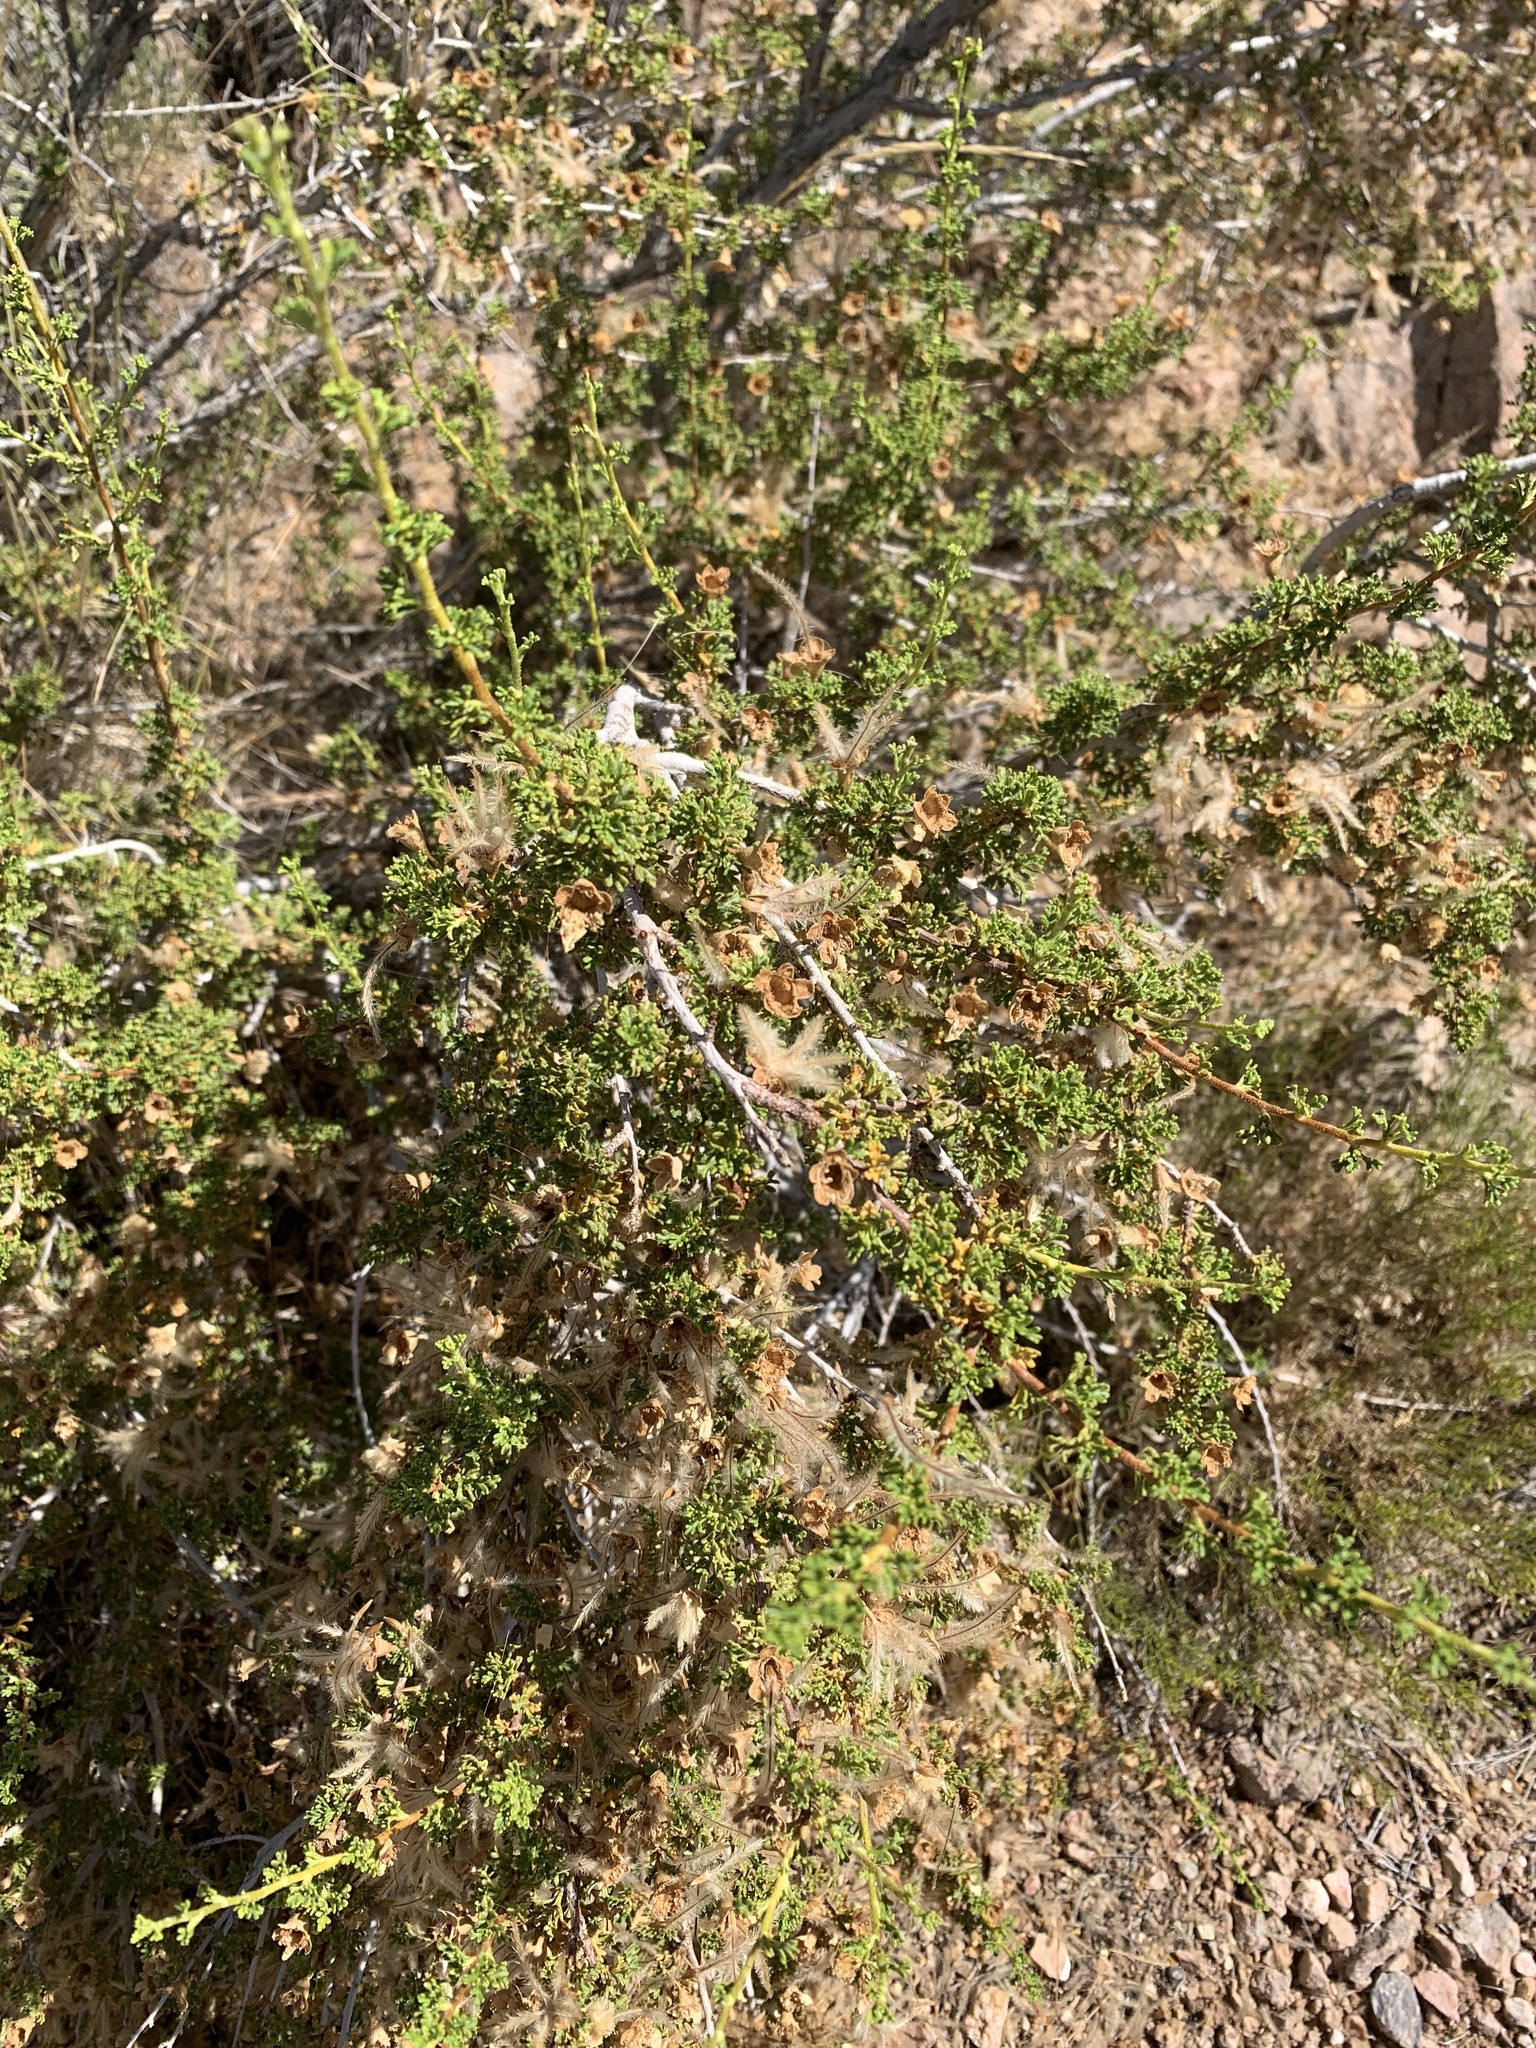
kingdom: Plantae
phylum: Tracheophyta
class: Magnoliopsida
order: Rosales
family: Rosaceae
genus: Purshia
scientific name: Purshia stansburiana
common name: Stansbury's cliffrose
